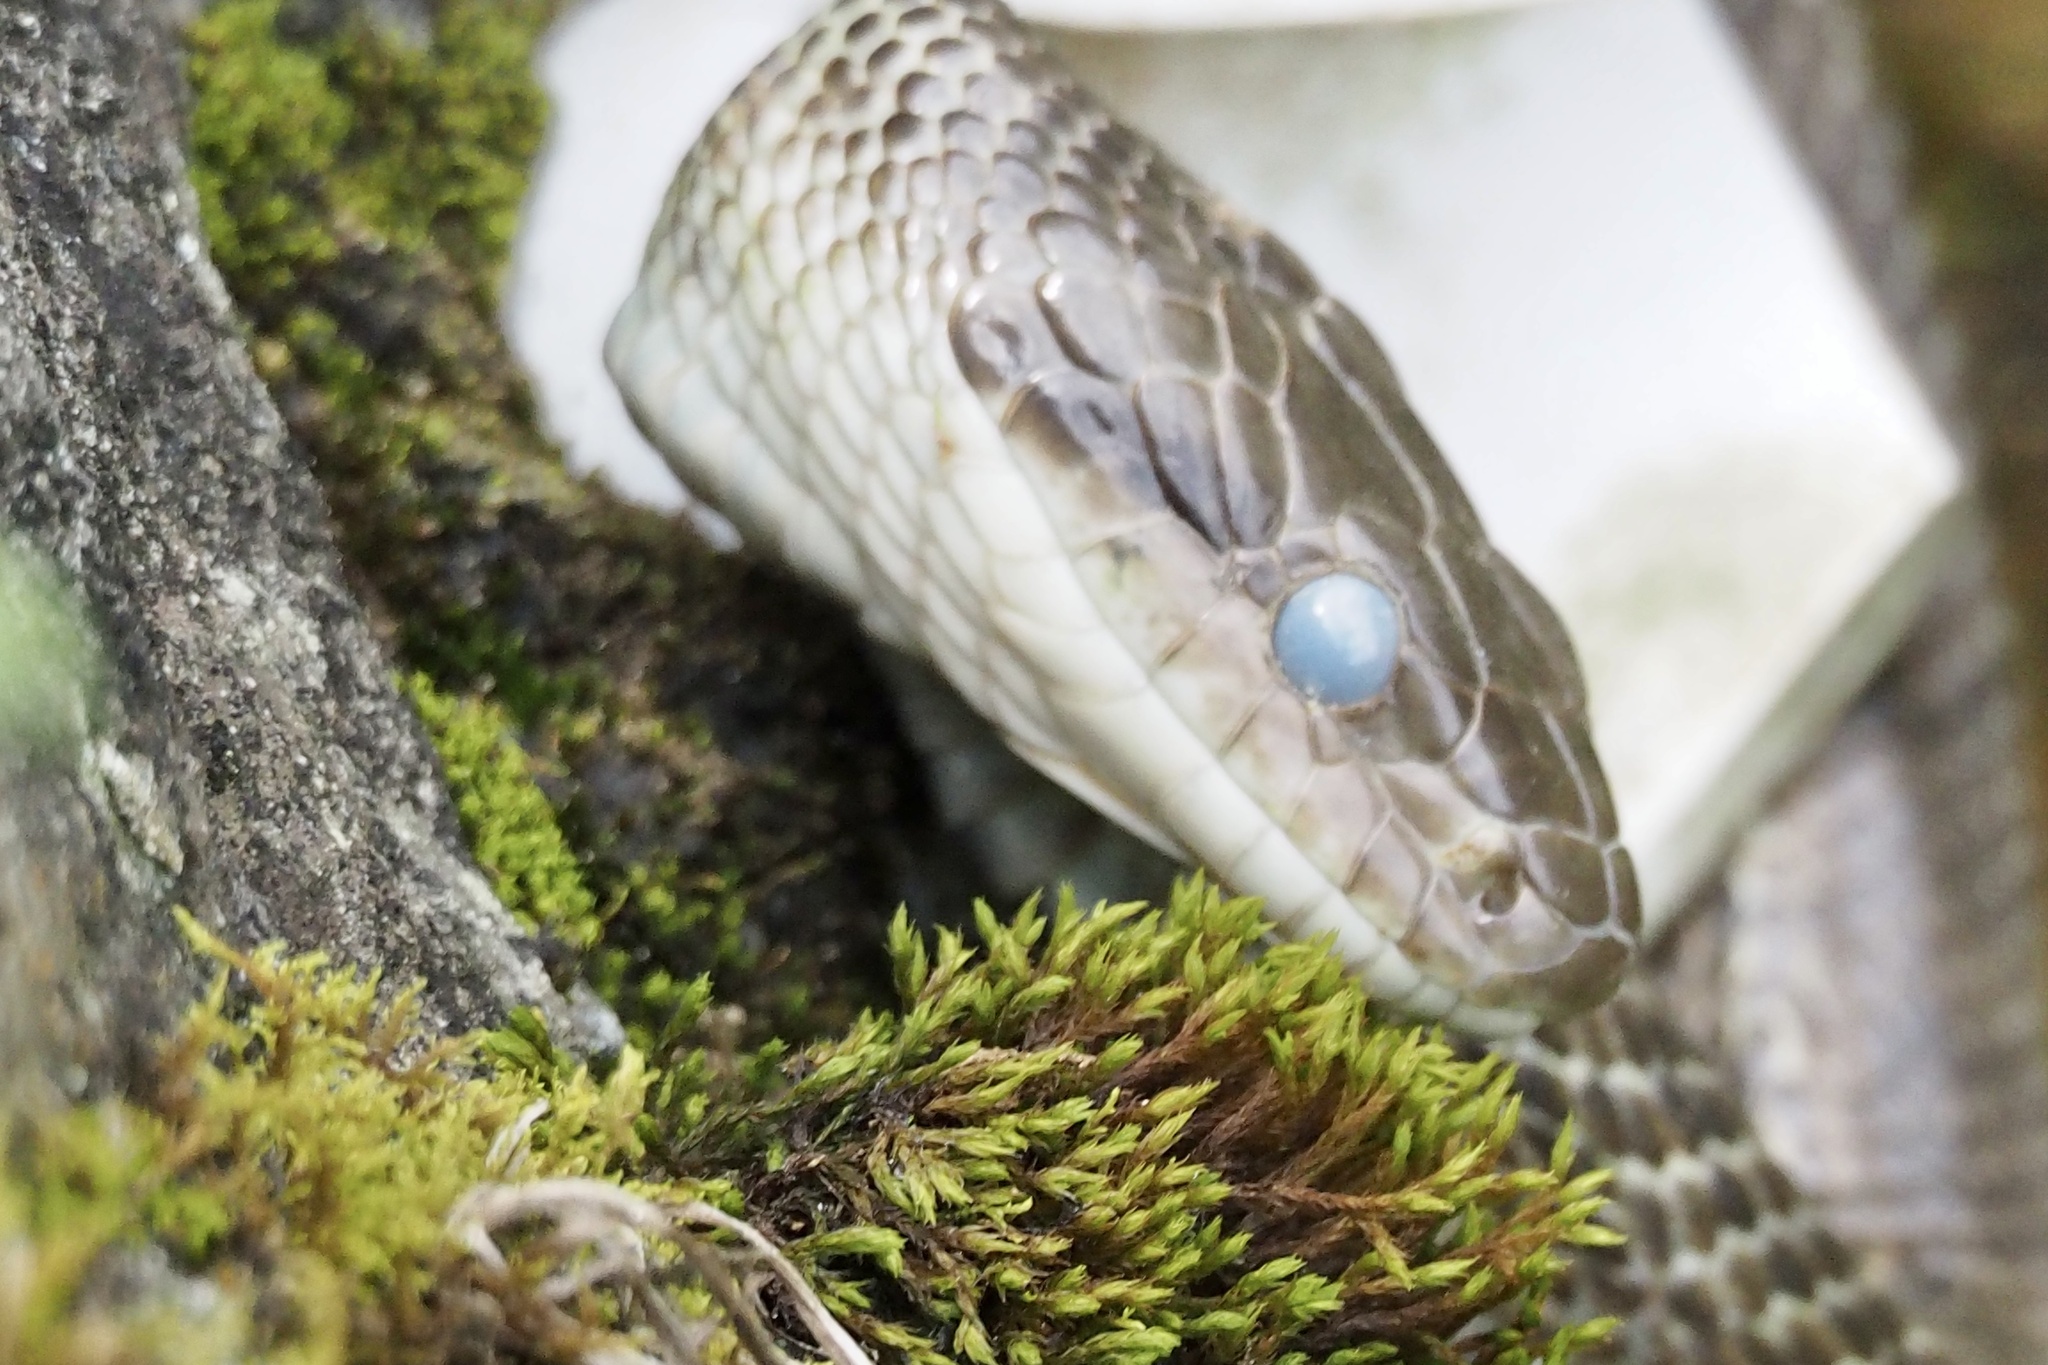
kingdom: Animalia
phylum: Chordata
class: Squamata
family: Colubridae
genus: Elaphe
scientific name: Elaphe climacophora
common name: Japanese ratsnake
